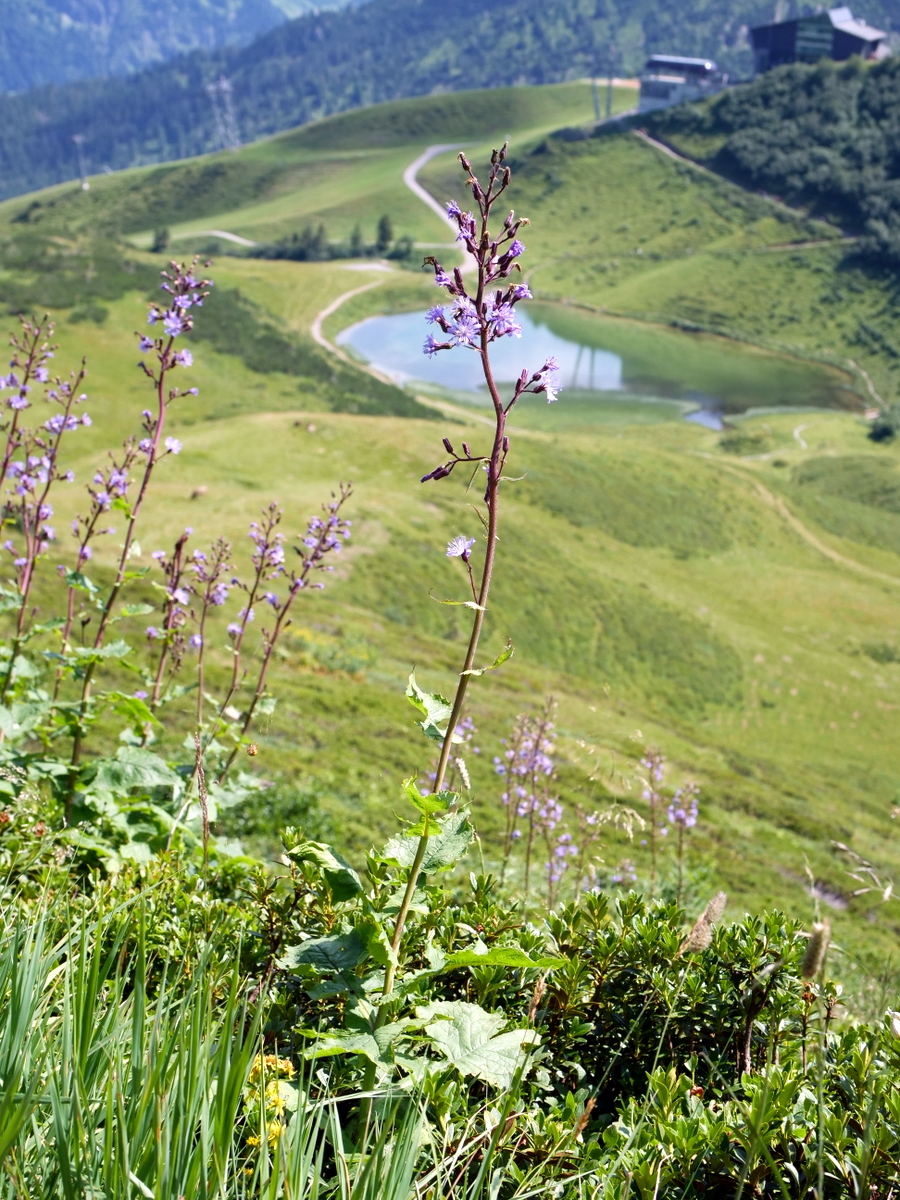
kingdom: Plantae
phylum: Tracheophyta
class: Magnoliopsida
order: Asterales
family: Asteraceae
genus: Cicerbita
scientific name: Cicerbita alpina
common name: Alpine blue-sow-thistle
